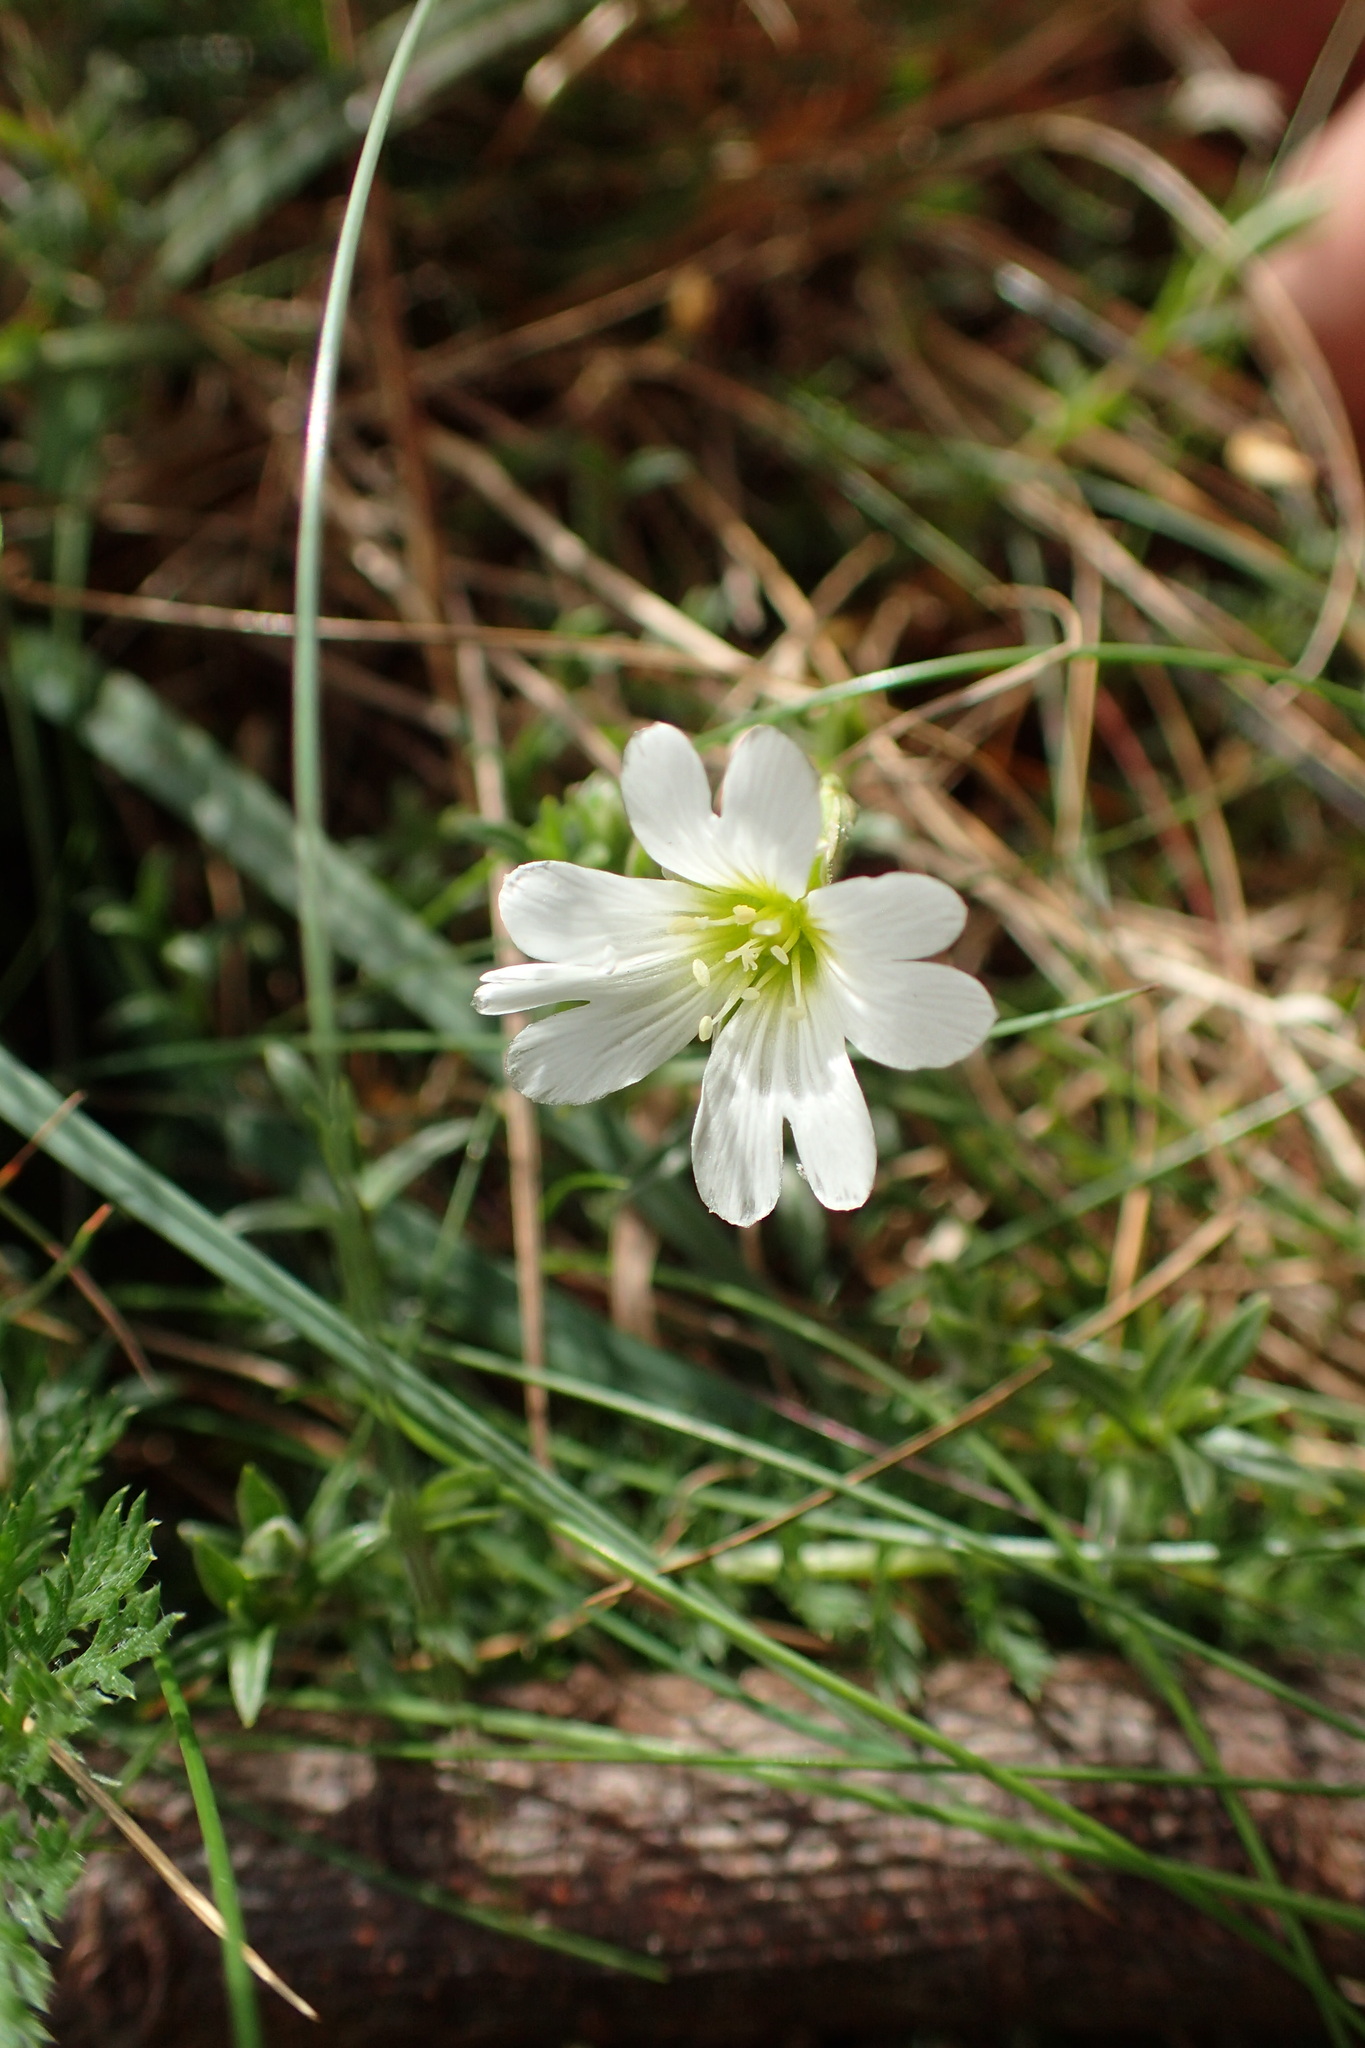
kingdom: Plantae
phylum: Tracheophyta
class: Magnoliopsida
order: Caryophyllales
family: Caryophyllaceae
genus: Cerastium
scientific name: Cerastium arvense
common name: Field mouse-ear
